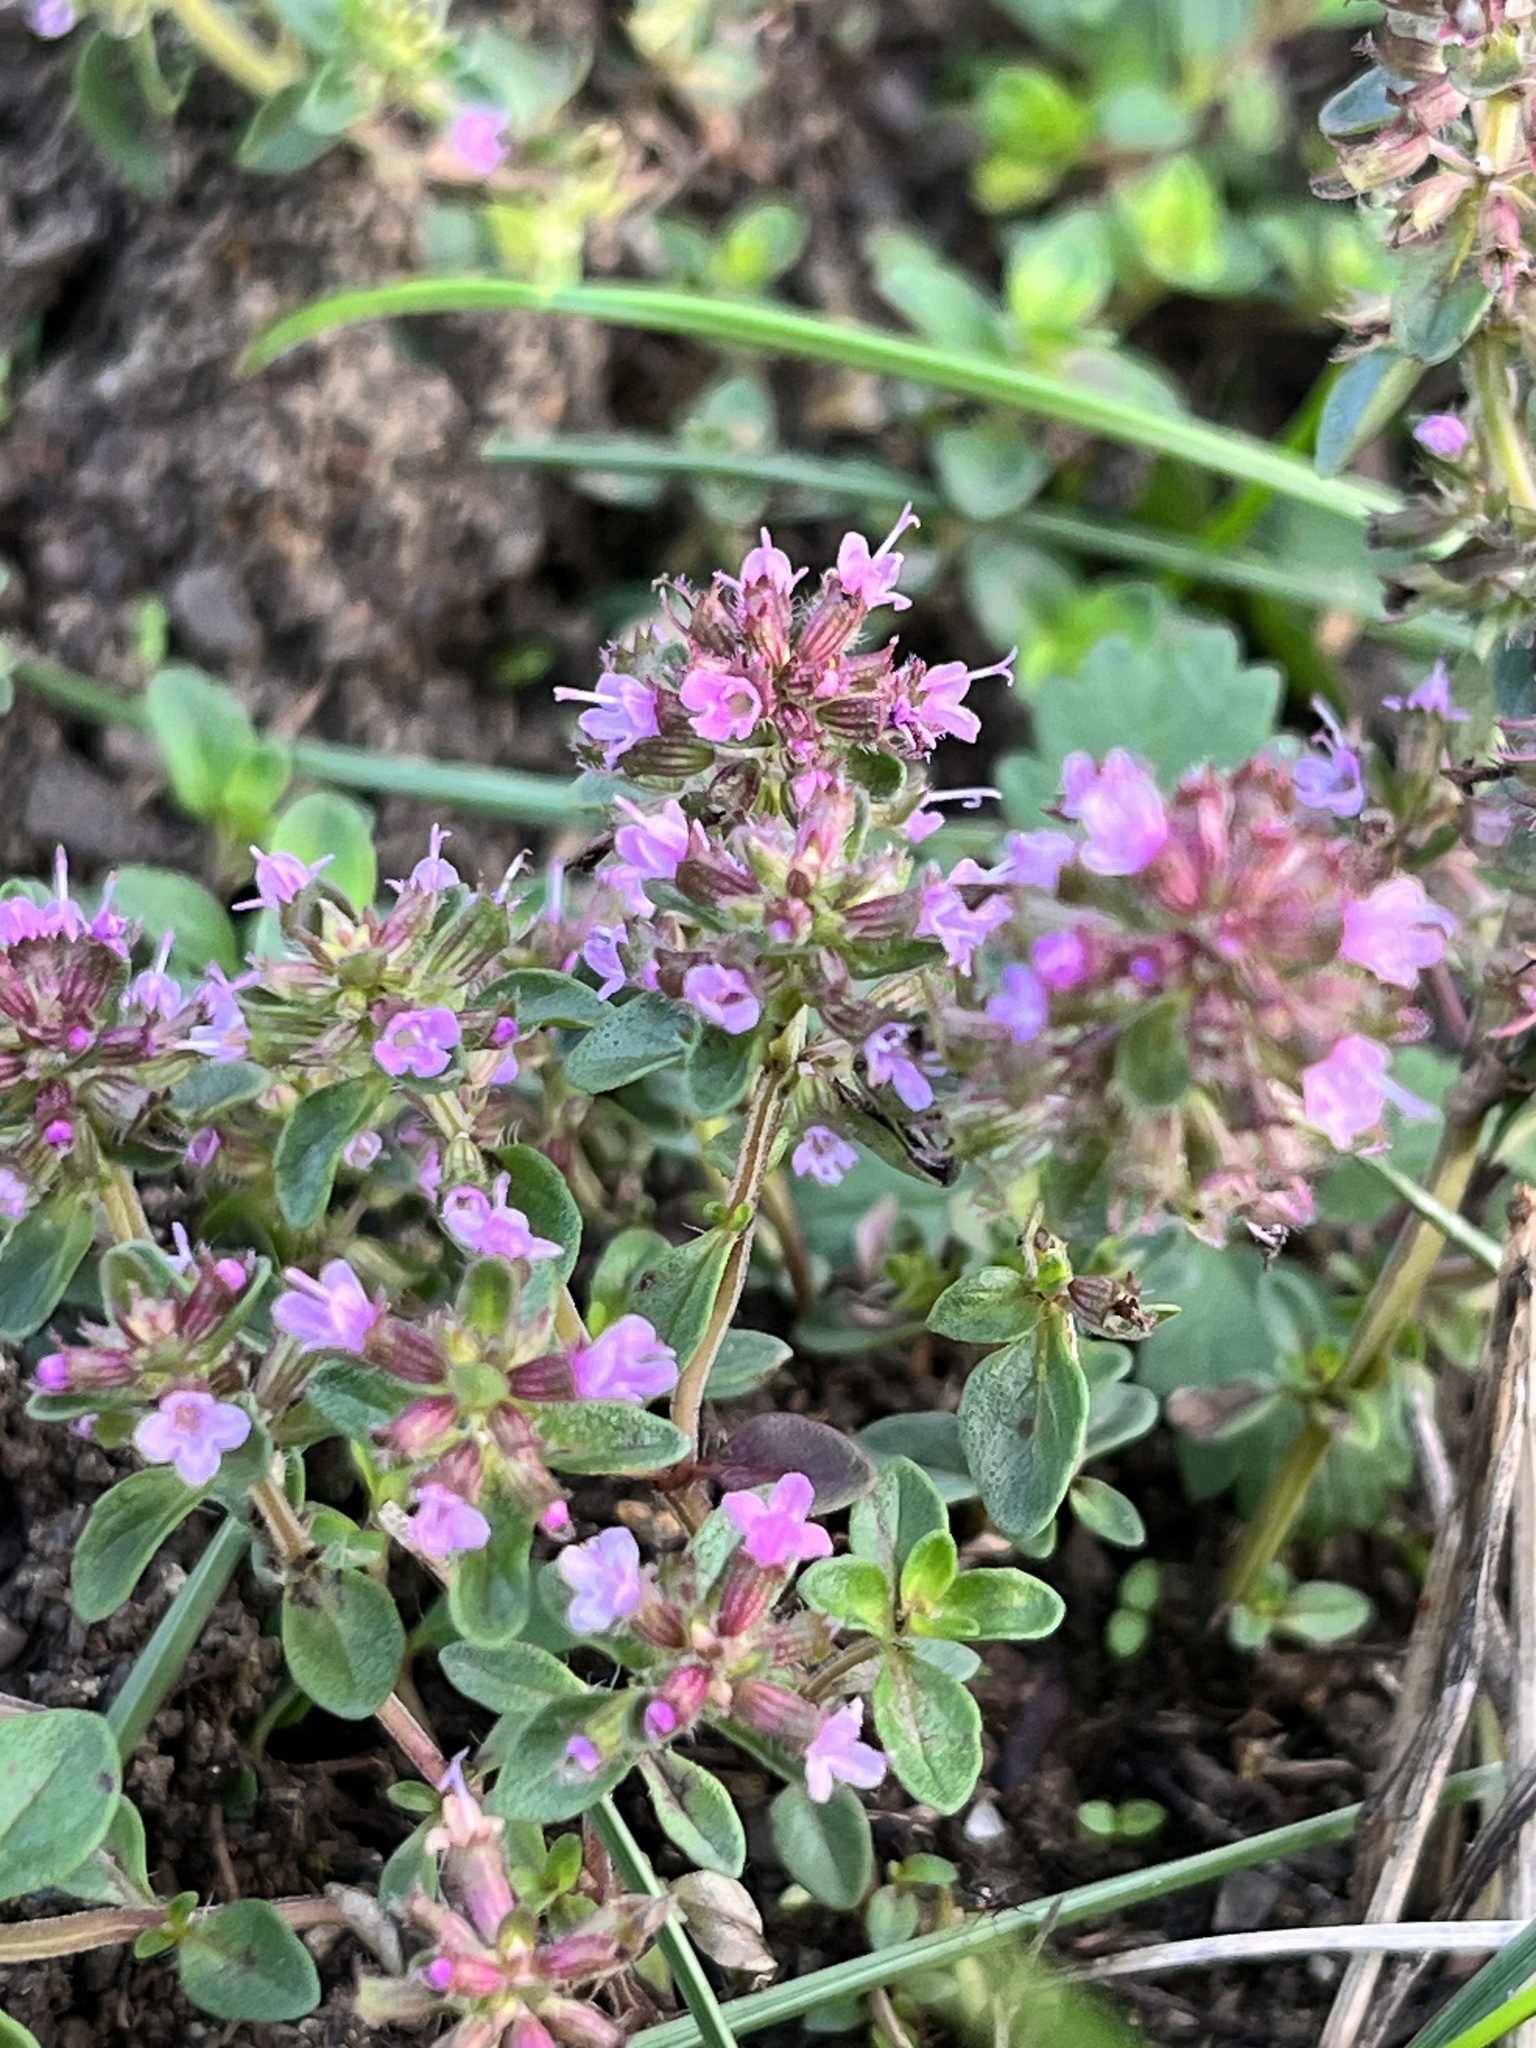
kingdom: Plantae
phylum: Tracheophyta
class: Magnoliopsida
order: Lamiales
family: Lamiaceae
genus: Thymus
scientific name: Thymus pulegioides
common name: Large thyme
